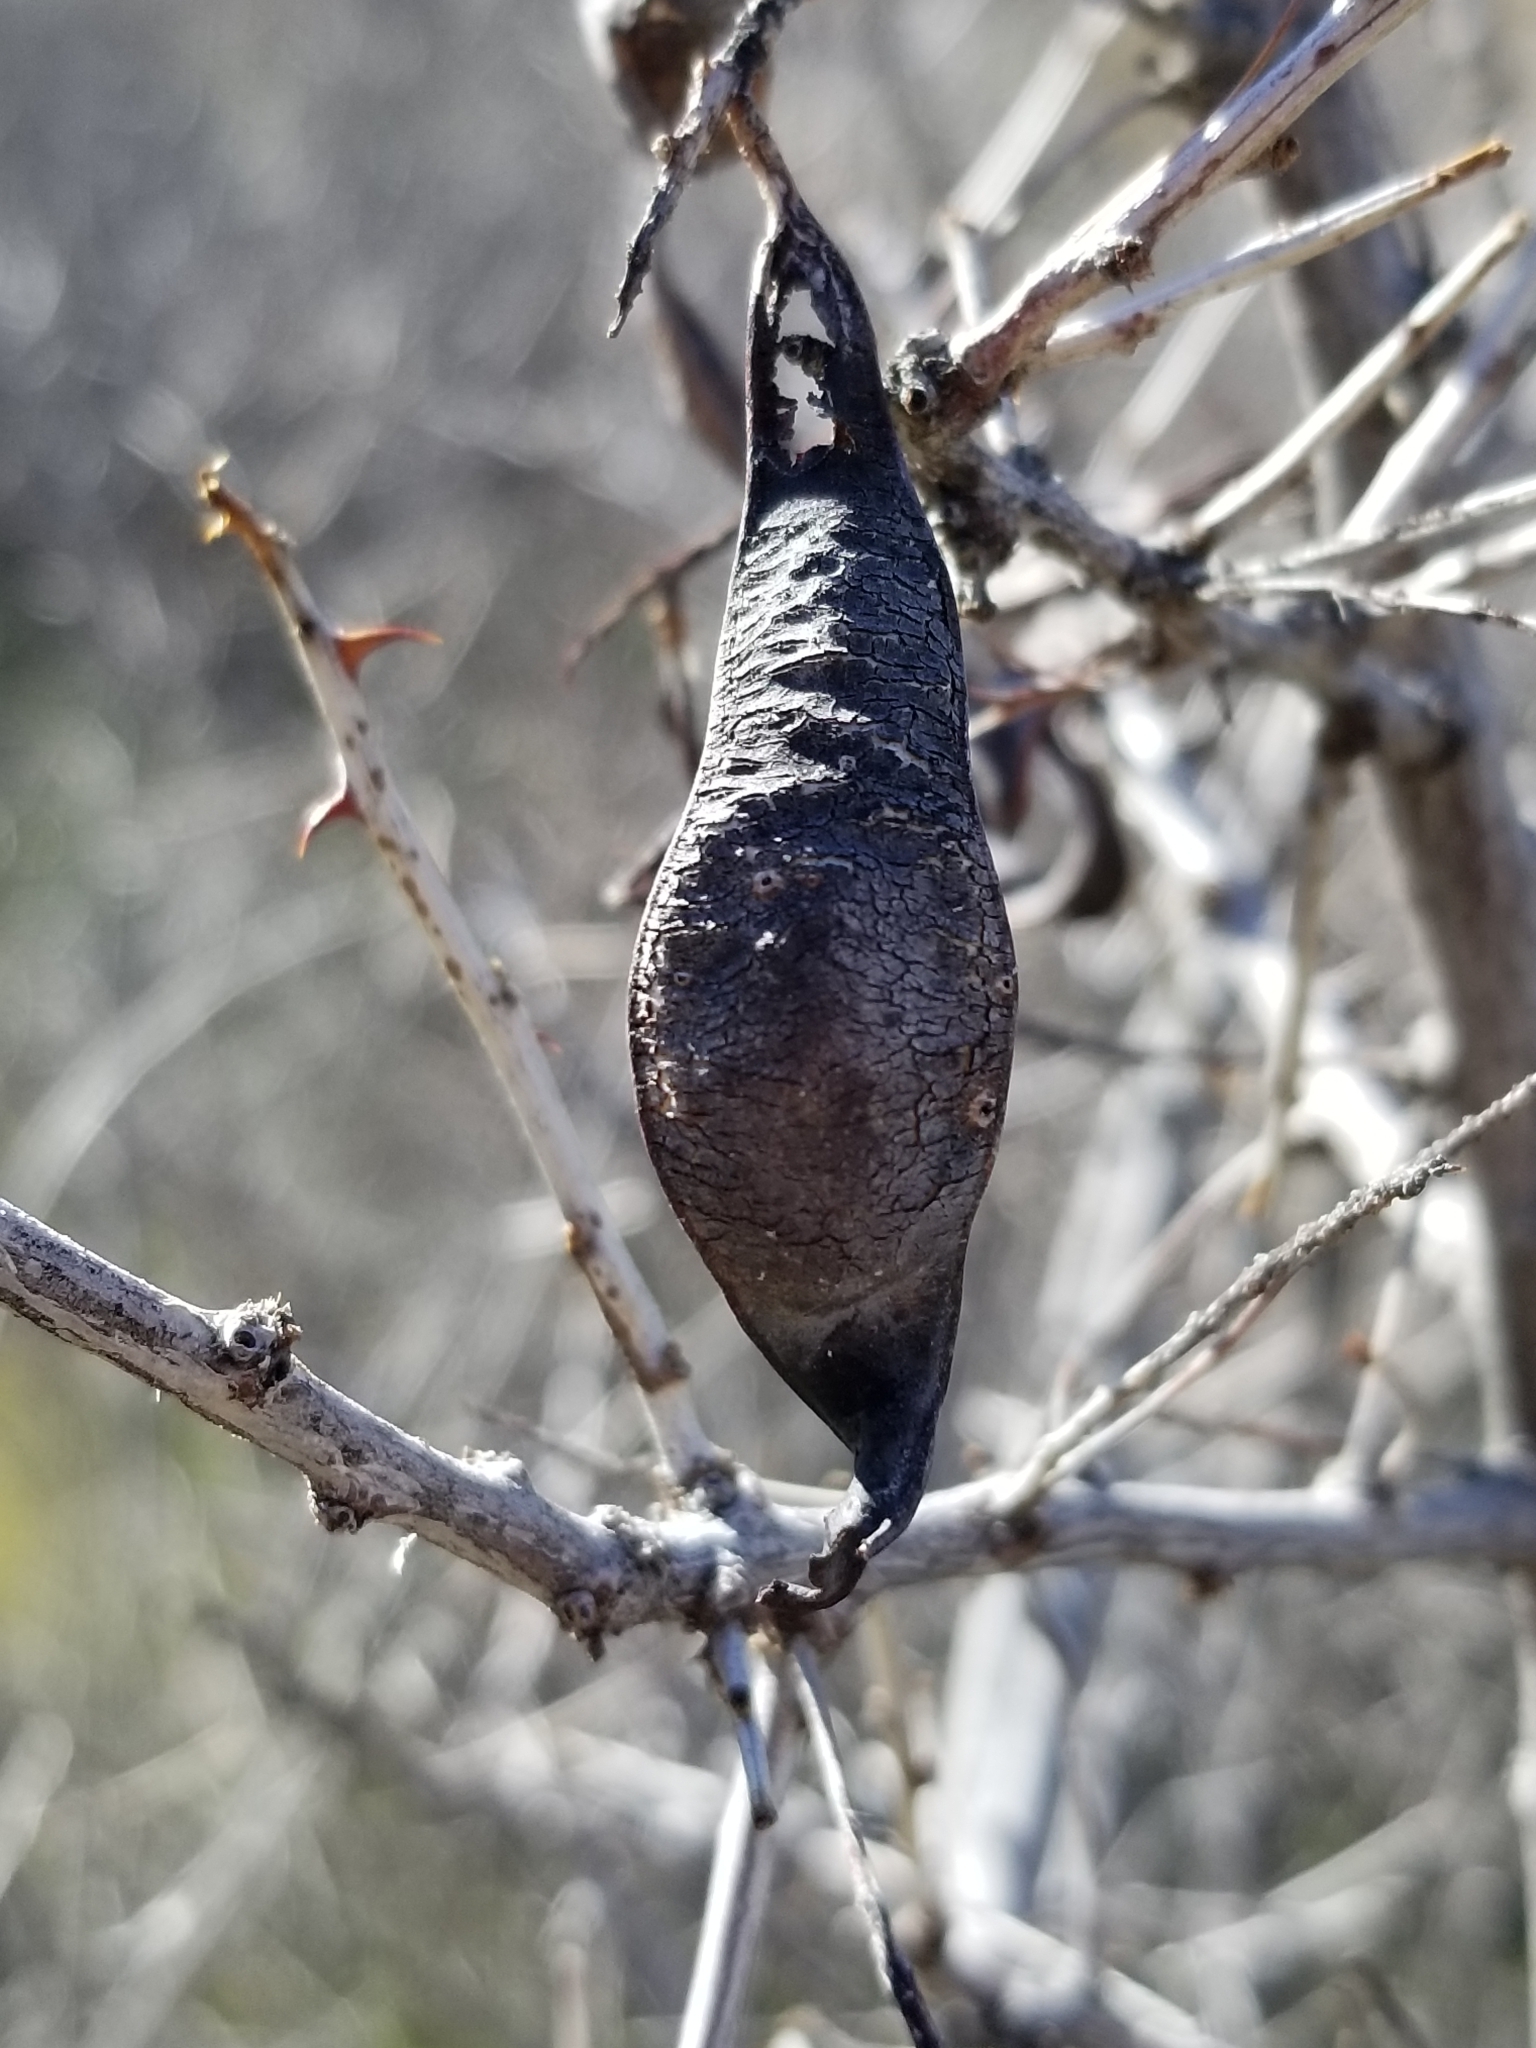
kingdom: Plantae
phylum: Tracheophyta
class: Magnoliopsida
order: Fabales
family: Fabaceae
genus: Senegalia
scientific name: Senegalia greggii
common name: Texas-mimosa
